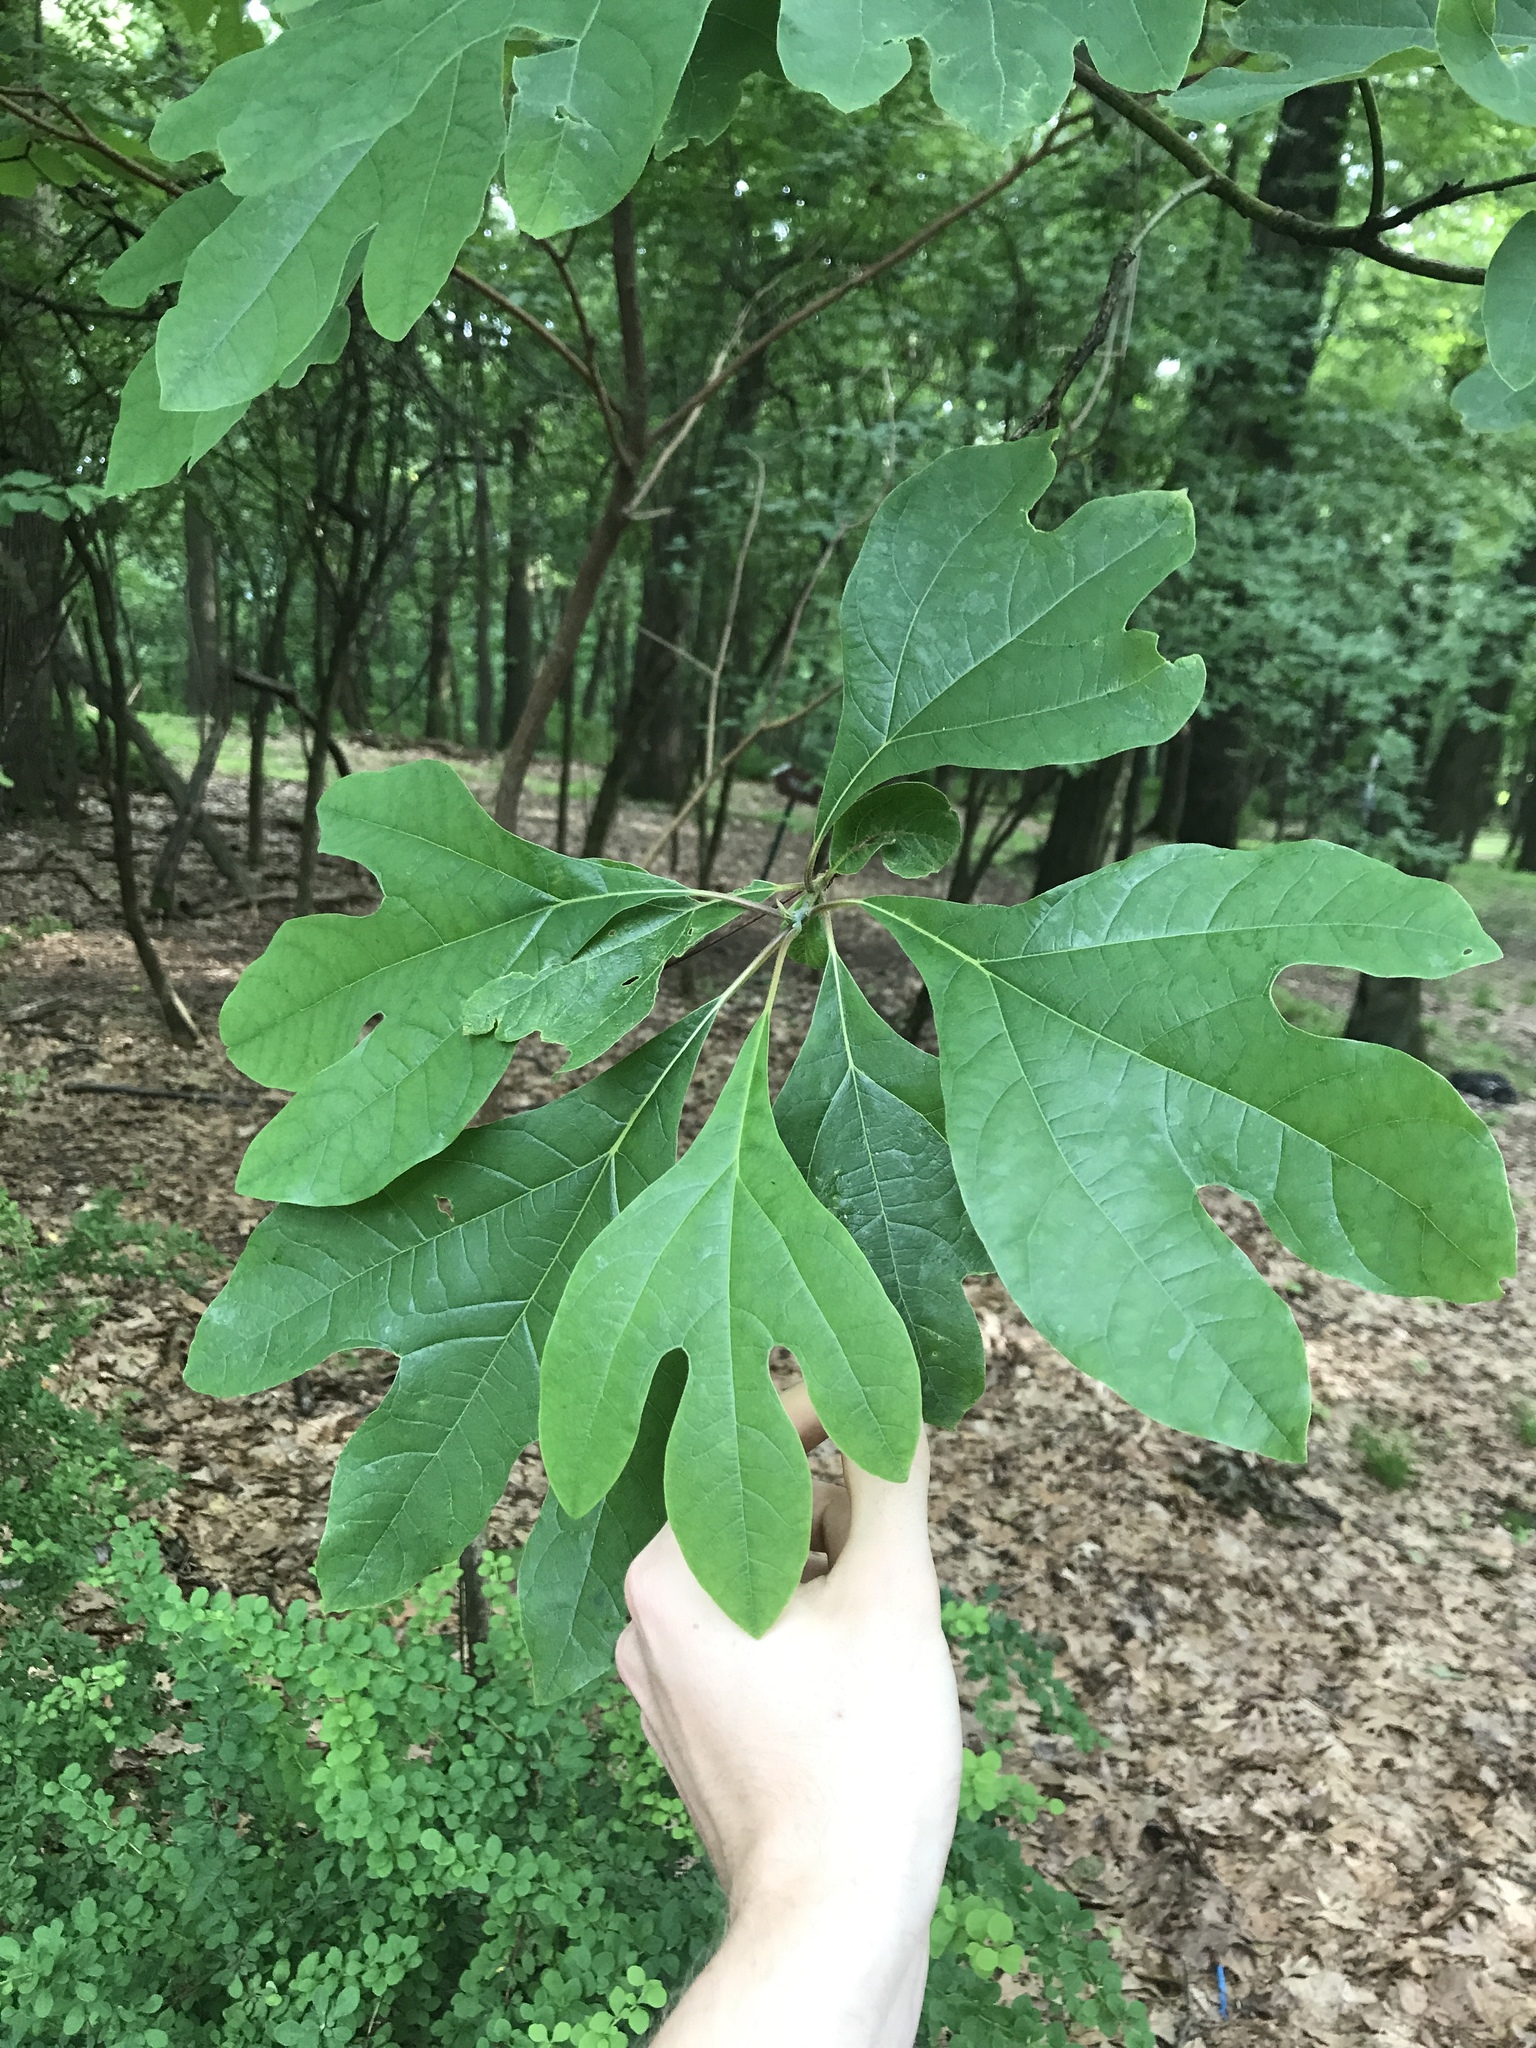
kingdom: Plantae
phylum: Tracheophyta
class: Magnoliopsida
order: Laurales
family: Lauraceae
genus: Sassafras
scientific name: Sassafras albidum
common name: Sassafras
